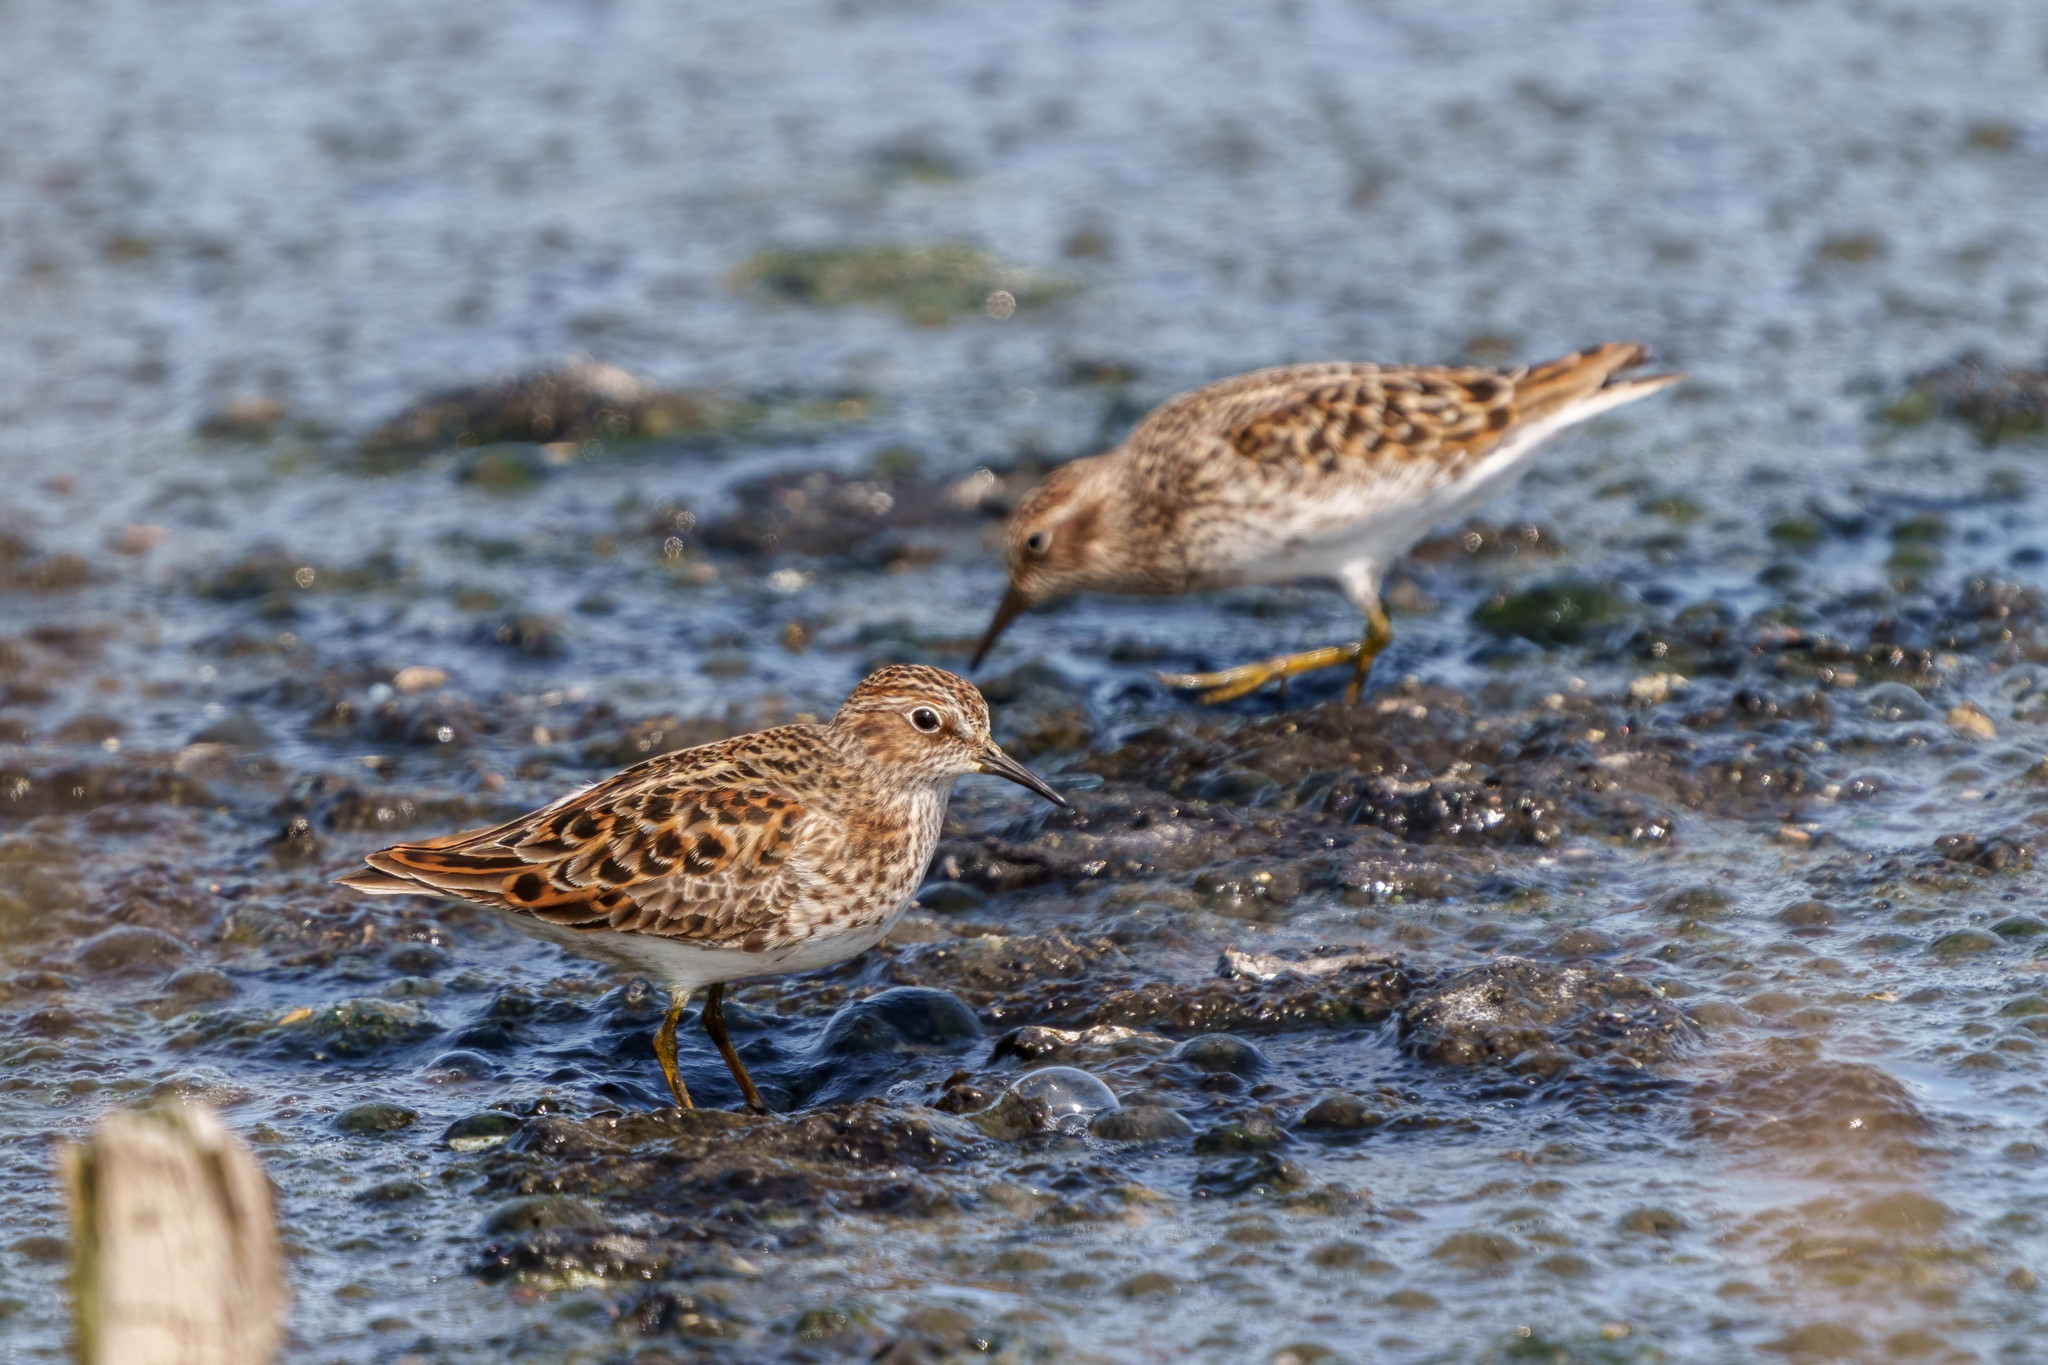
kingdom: Animalia
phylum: Chordata
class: Aves
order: Charadriiformes
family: Scolopacidae
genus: Calidris
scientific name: Calidris minutilla
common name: Least sandpiper
